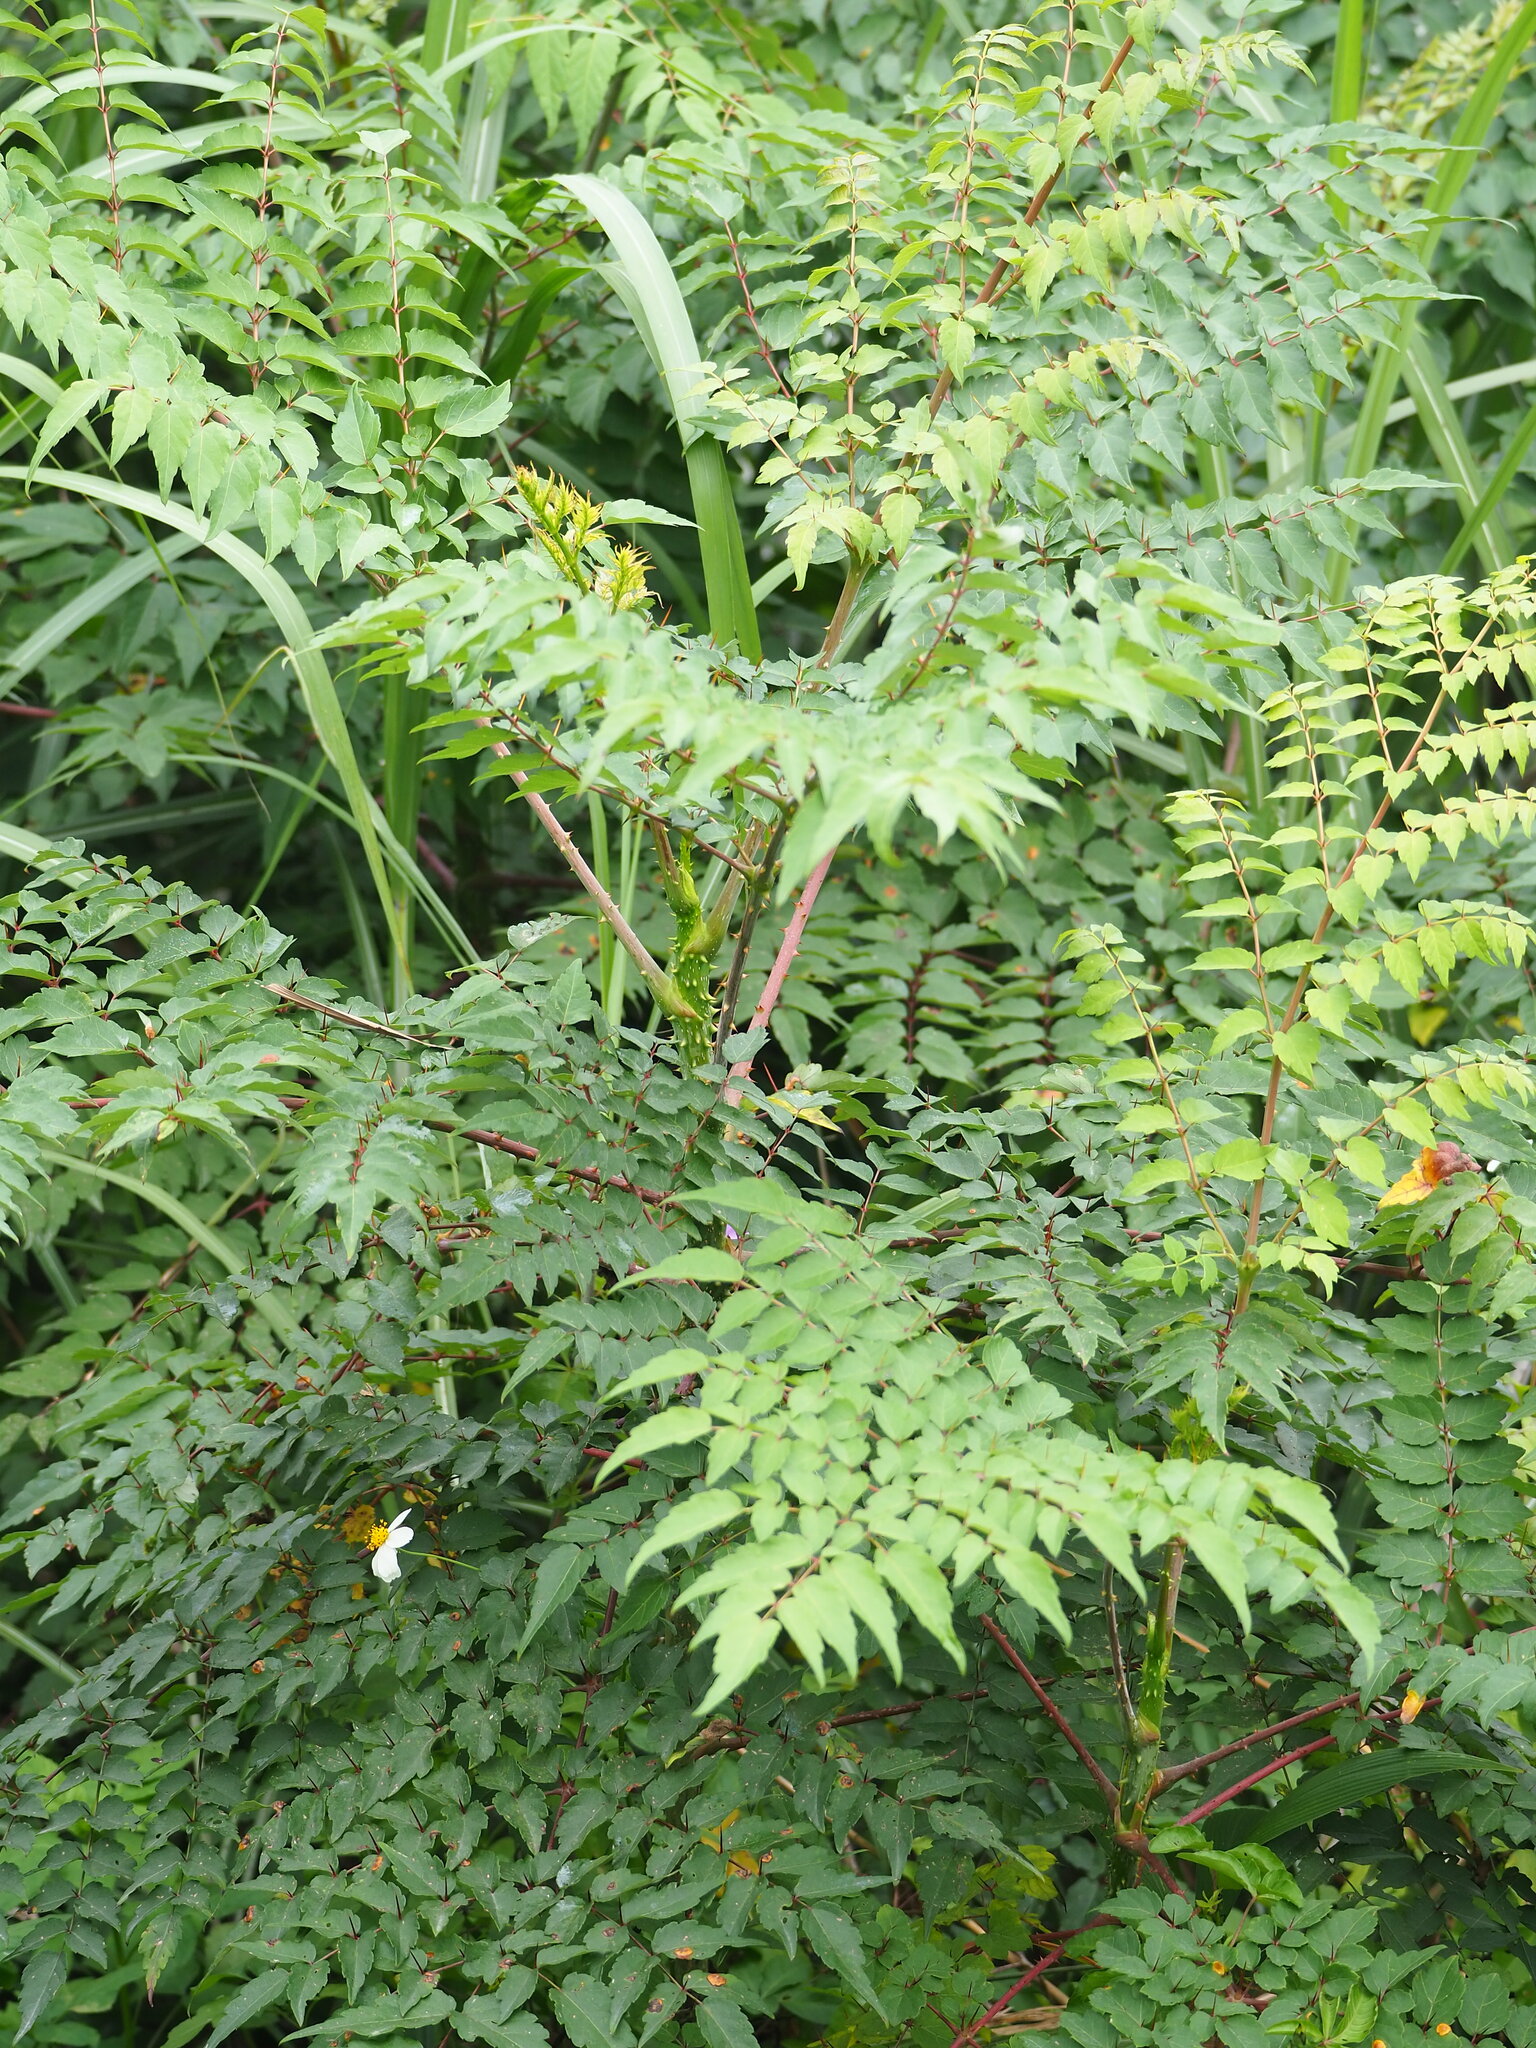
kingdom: Plantae
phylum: Tracheophyta
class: Magnoliopsida
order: Apiales
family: Araliaceae
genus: Aralia
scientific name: Aralia bipinnata
